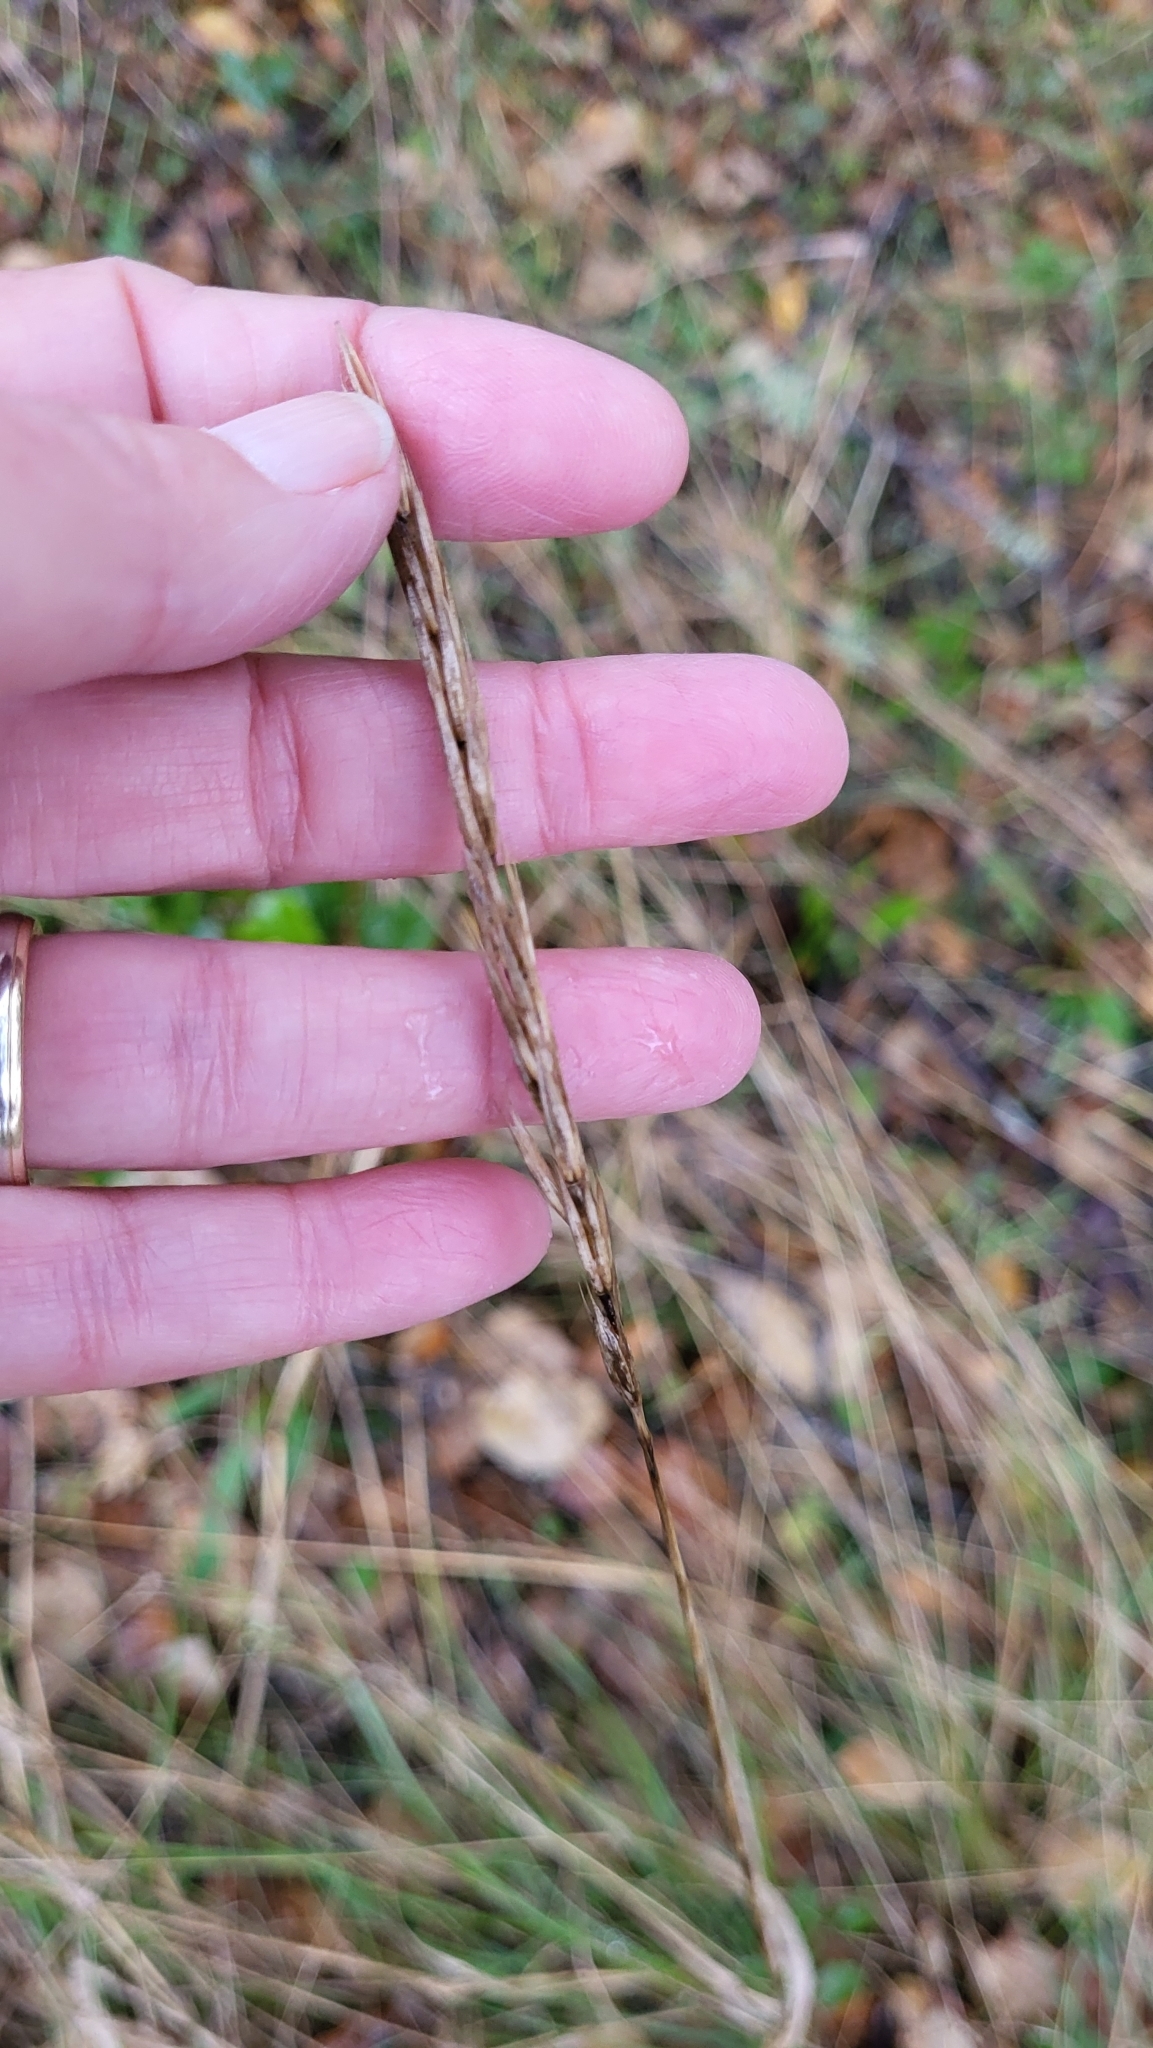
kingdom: Plantae
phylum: Tracheophyta
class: Liliopsida
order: Poales
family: Poaceae
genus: Elymus
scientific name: Elymus glaucus
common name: Blue wild rye
